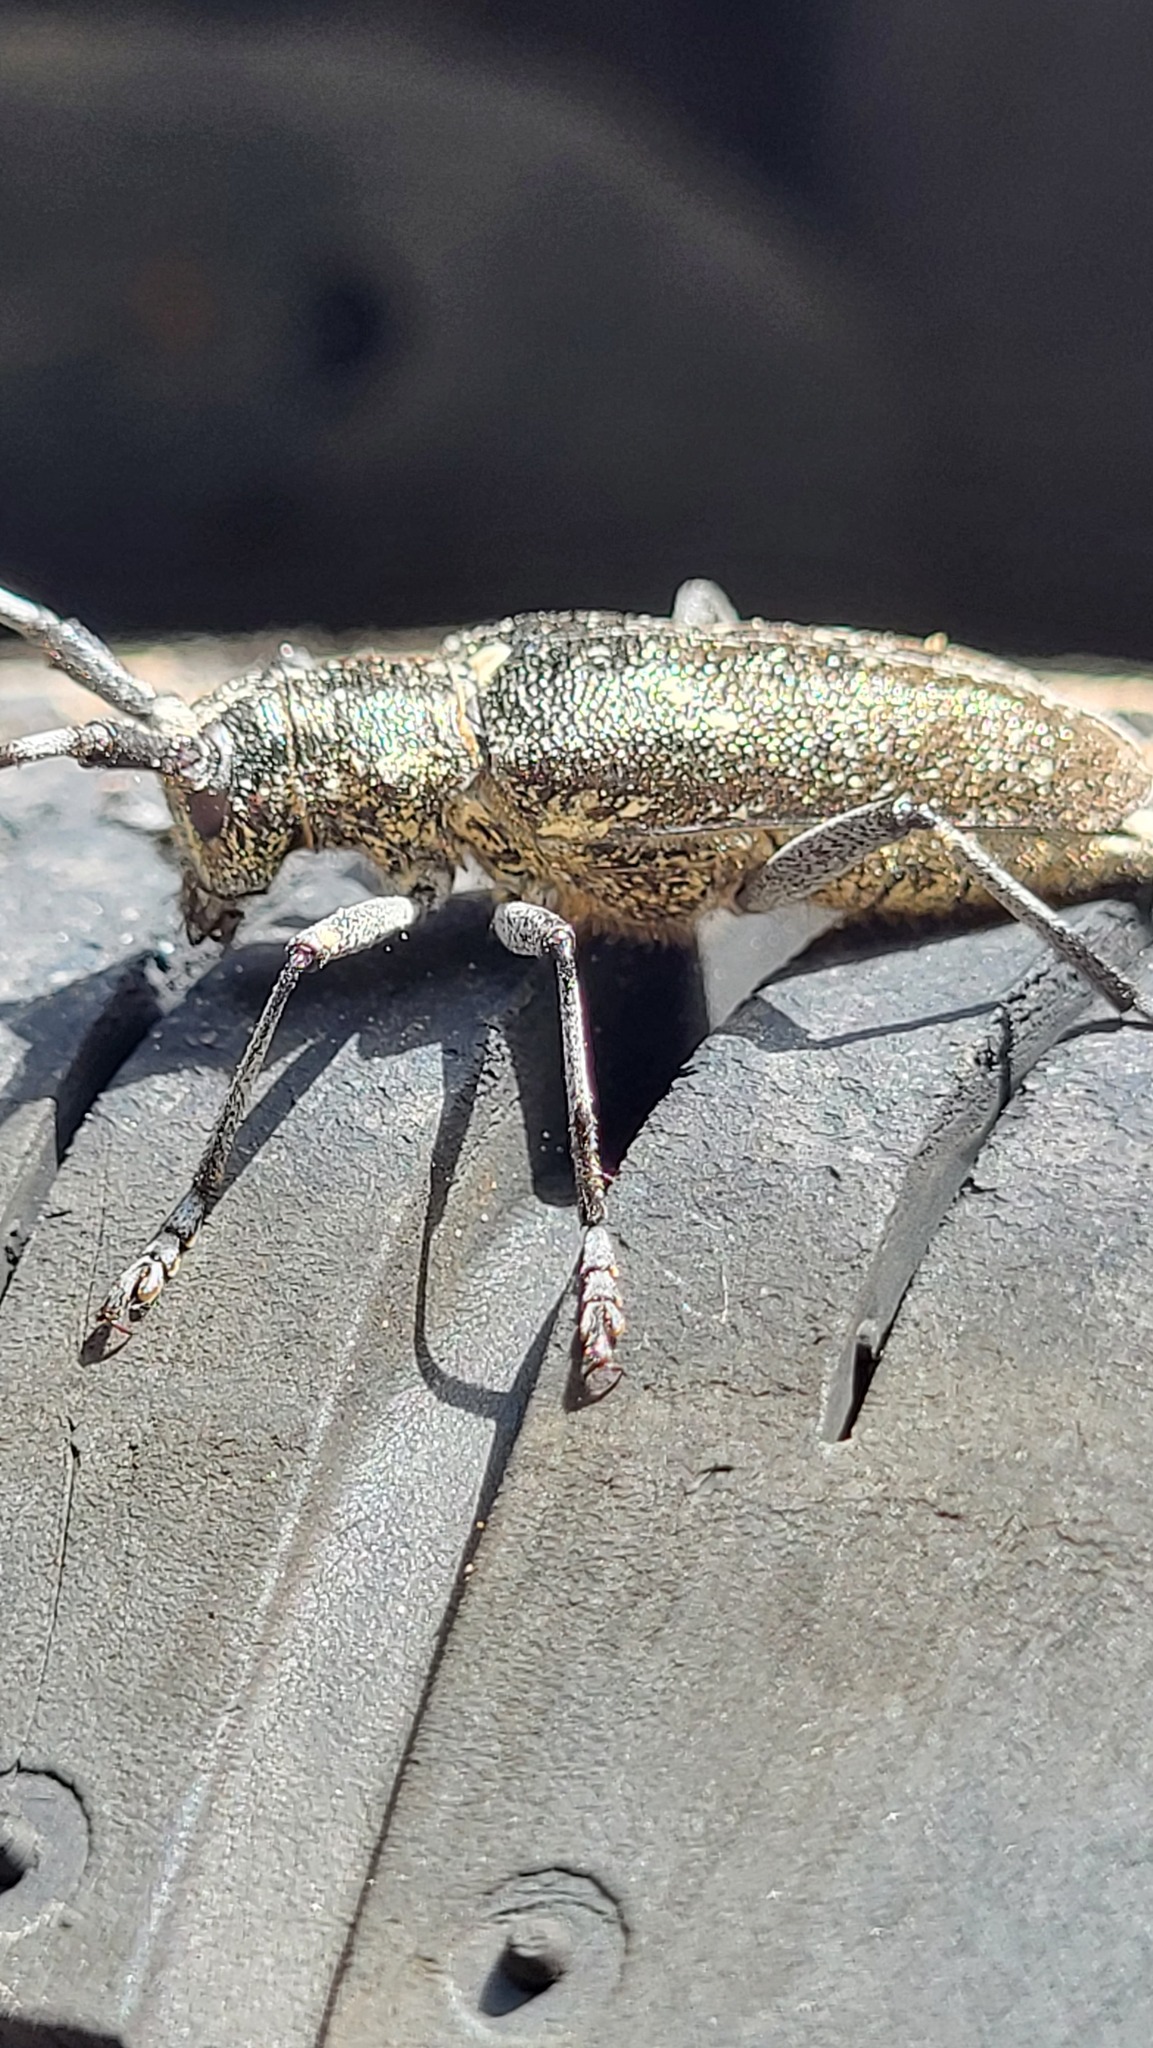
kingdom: Animalia
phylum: Arthropoda
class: Insecta
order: Coleoptera
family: Cerambycidae
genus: Monochamus
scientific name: Monochamus scutellatus
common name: White-spotted sawyer beetle
